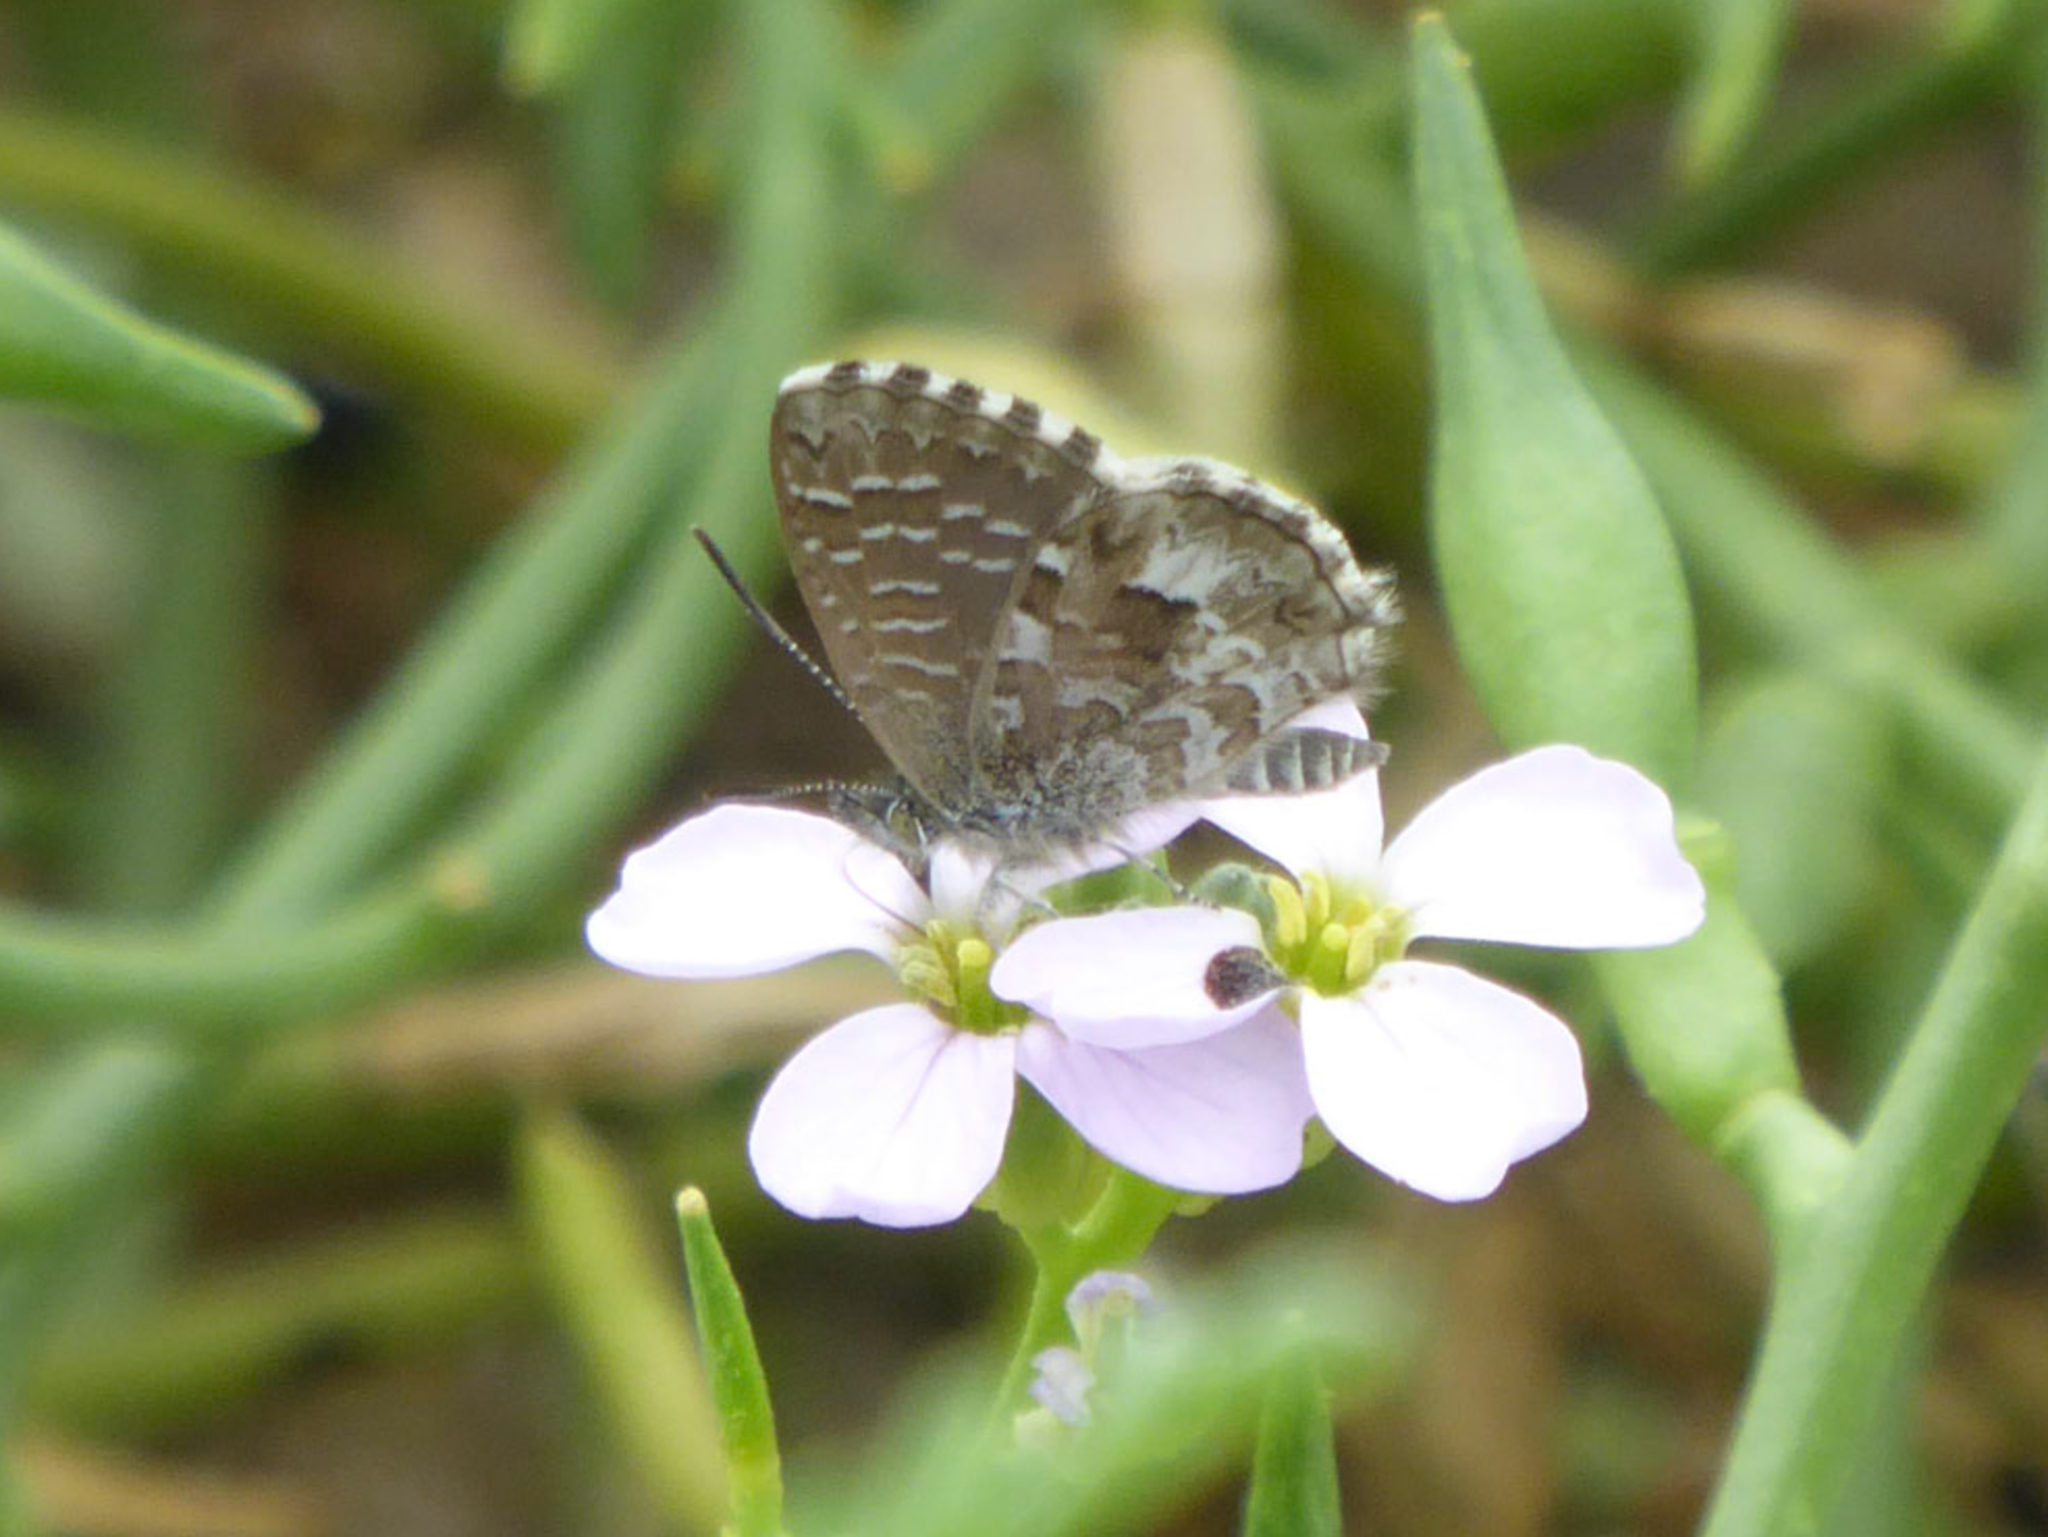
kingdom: Animalia
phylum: Arthropoda
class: Insecta
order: Lepidoptera
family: Lycaenidae
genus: Theclinesthes
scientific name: Theclinesthes serpentata
